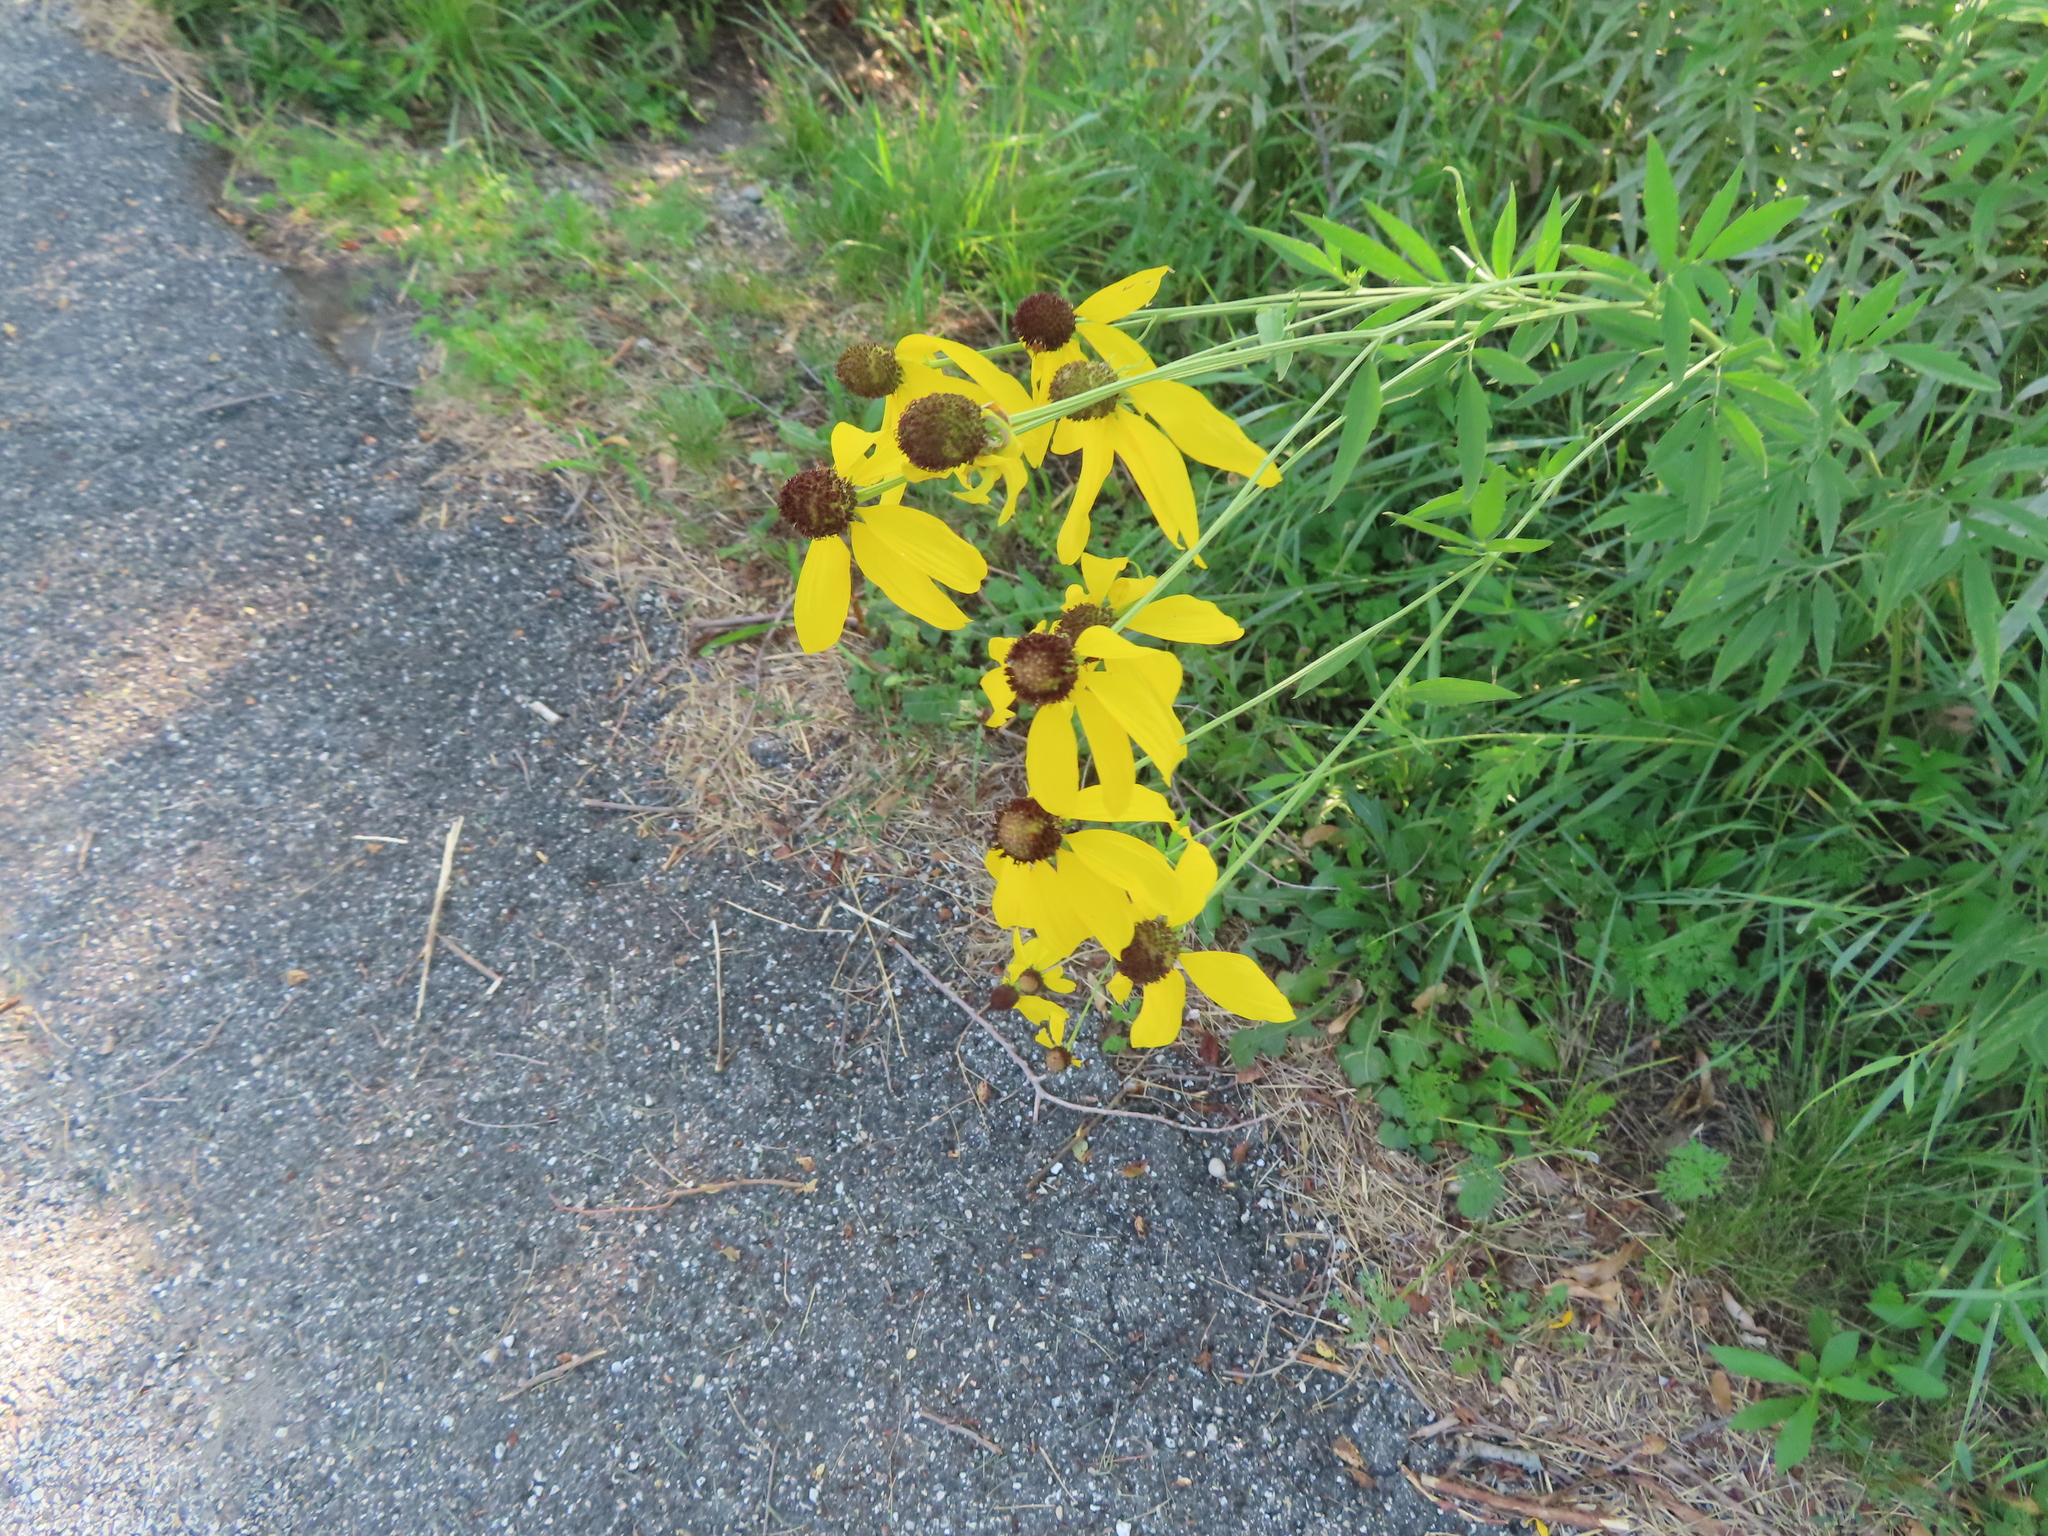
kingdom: Plantae
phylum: Tracheophyta
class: Magnoliopsida
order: Asterales
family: Asteraceae
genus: Ratibida
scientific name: Ratibida pinnata
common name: Drooping prairie-coneflower
